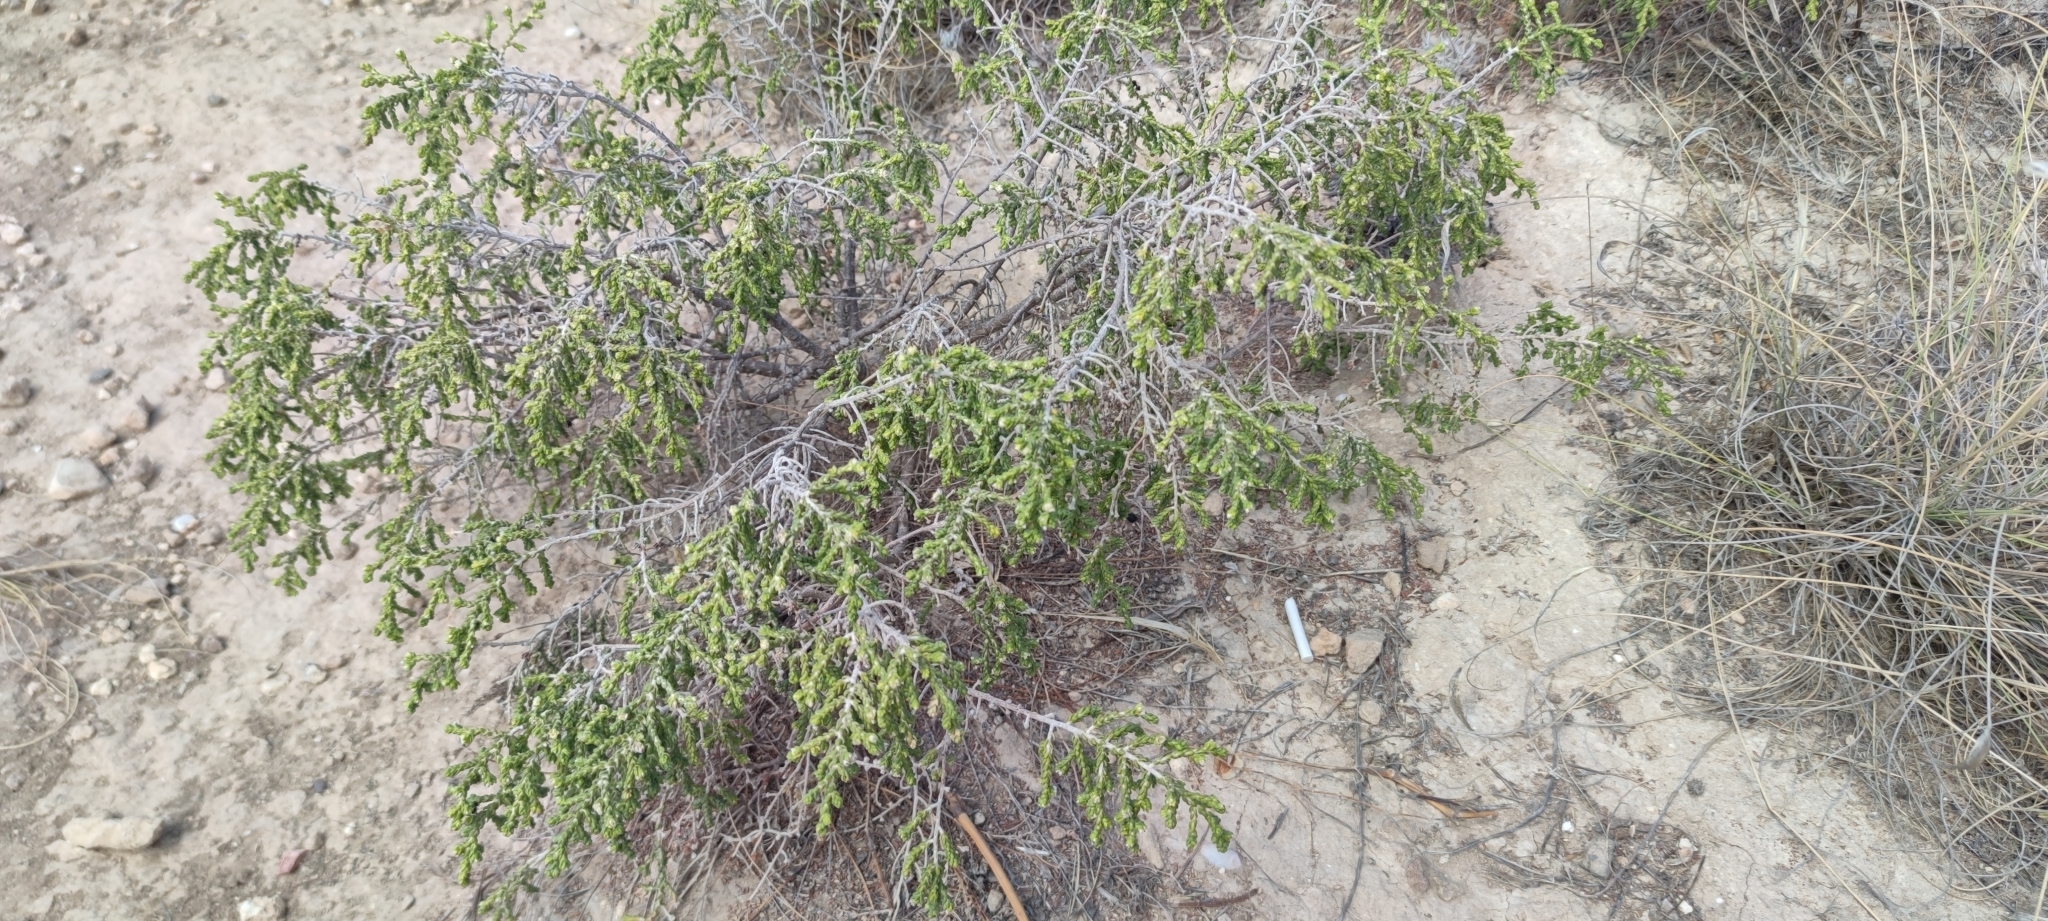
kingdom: Plantae
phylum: Tracheophyta
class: Magnoliopsida
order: Malvales
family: Thymelaeaceae
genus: Thymelaea
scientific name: Thymelaea hirsuta
